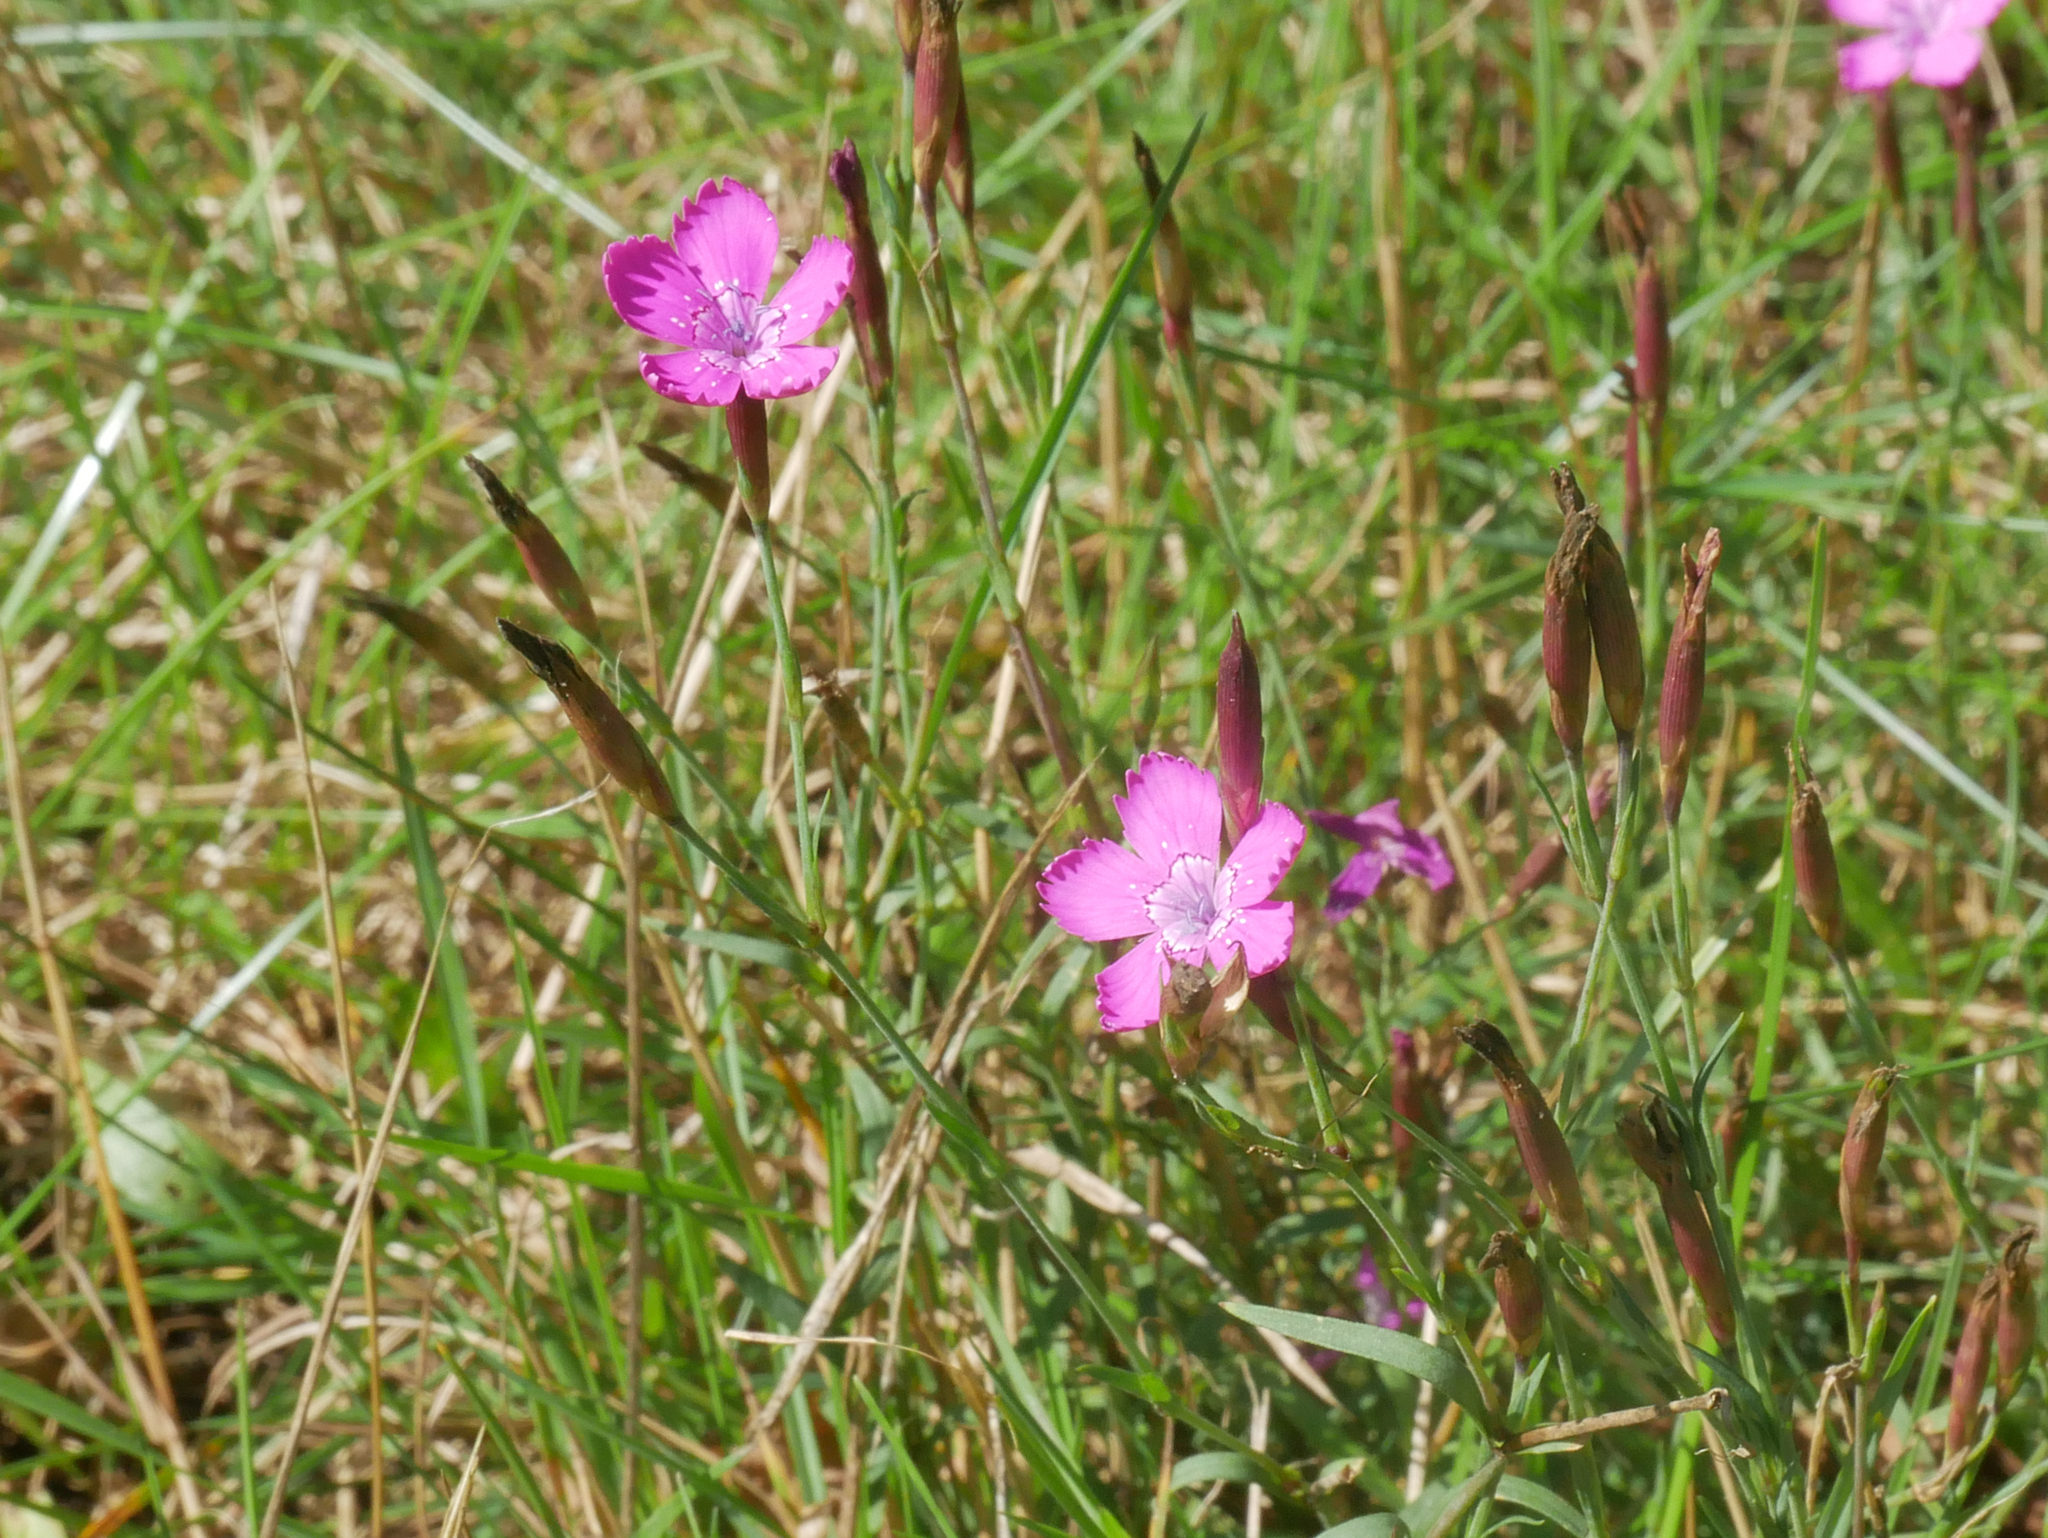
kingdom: Plantae
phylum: Tracheophyta
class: Magnoliopsida
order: Caryophyllales
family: Caryophyllaceae
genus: Dianthus
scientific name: Dianthus deltoides
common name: Maiden pink
